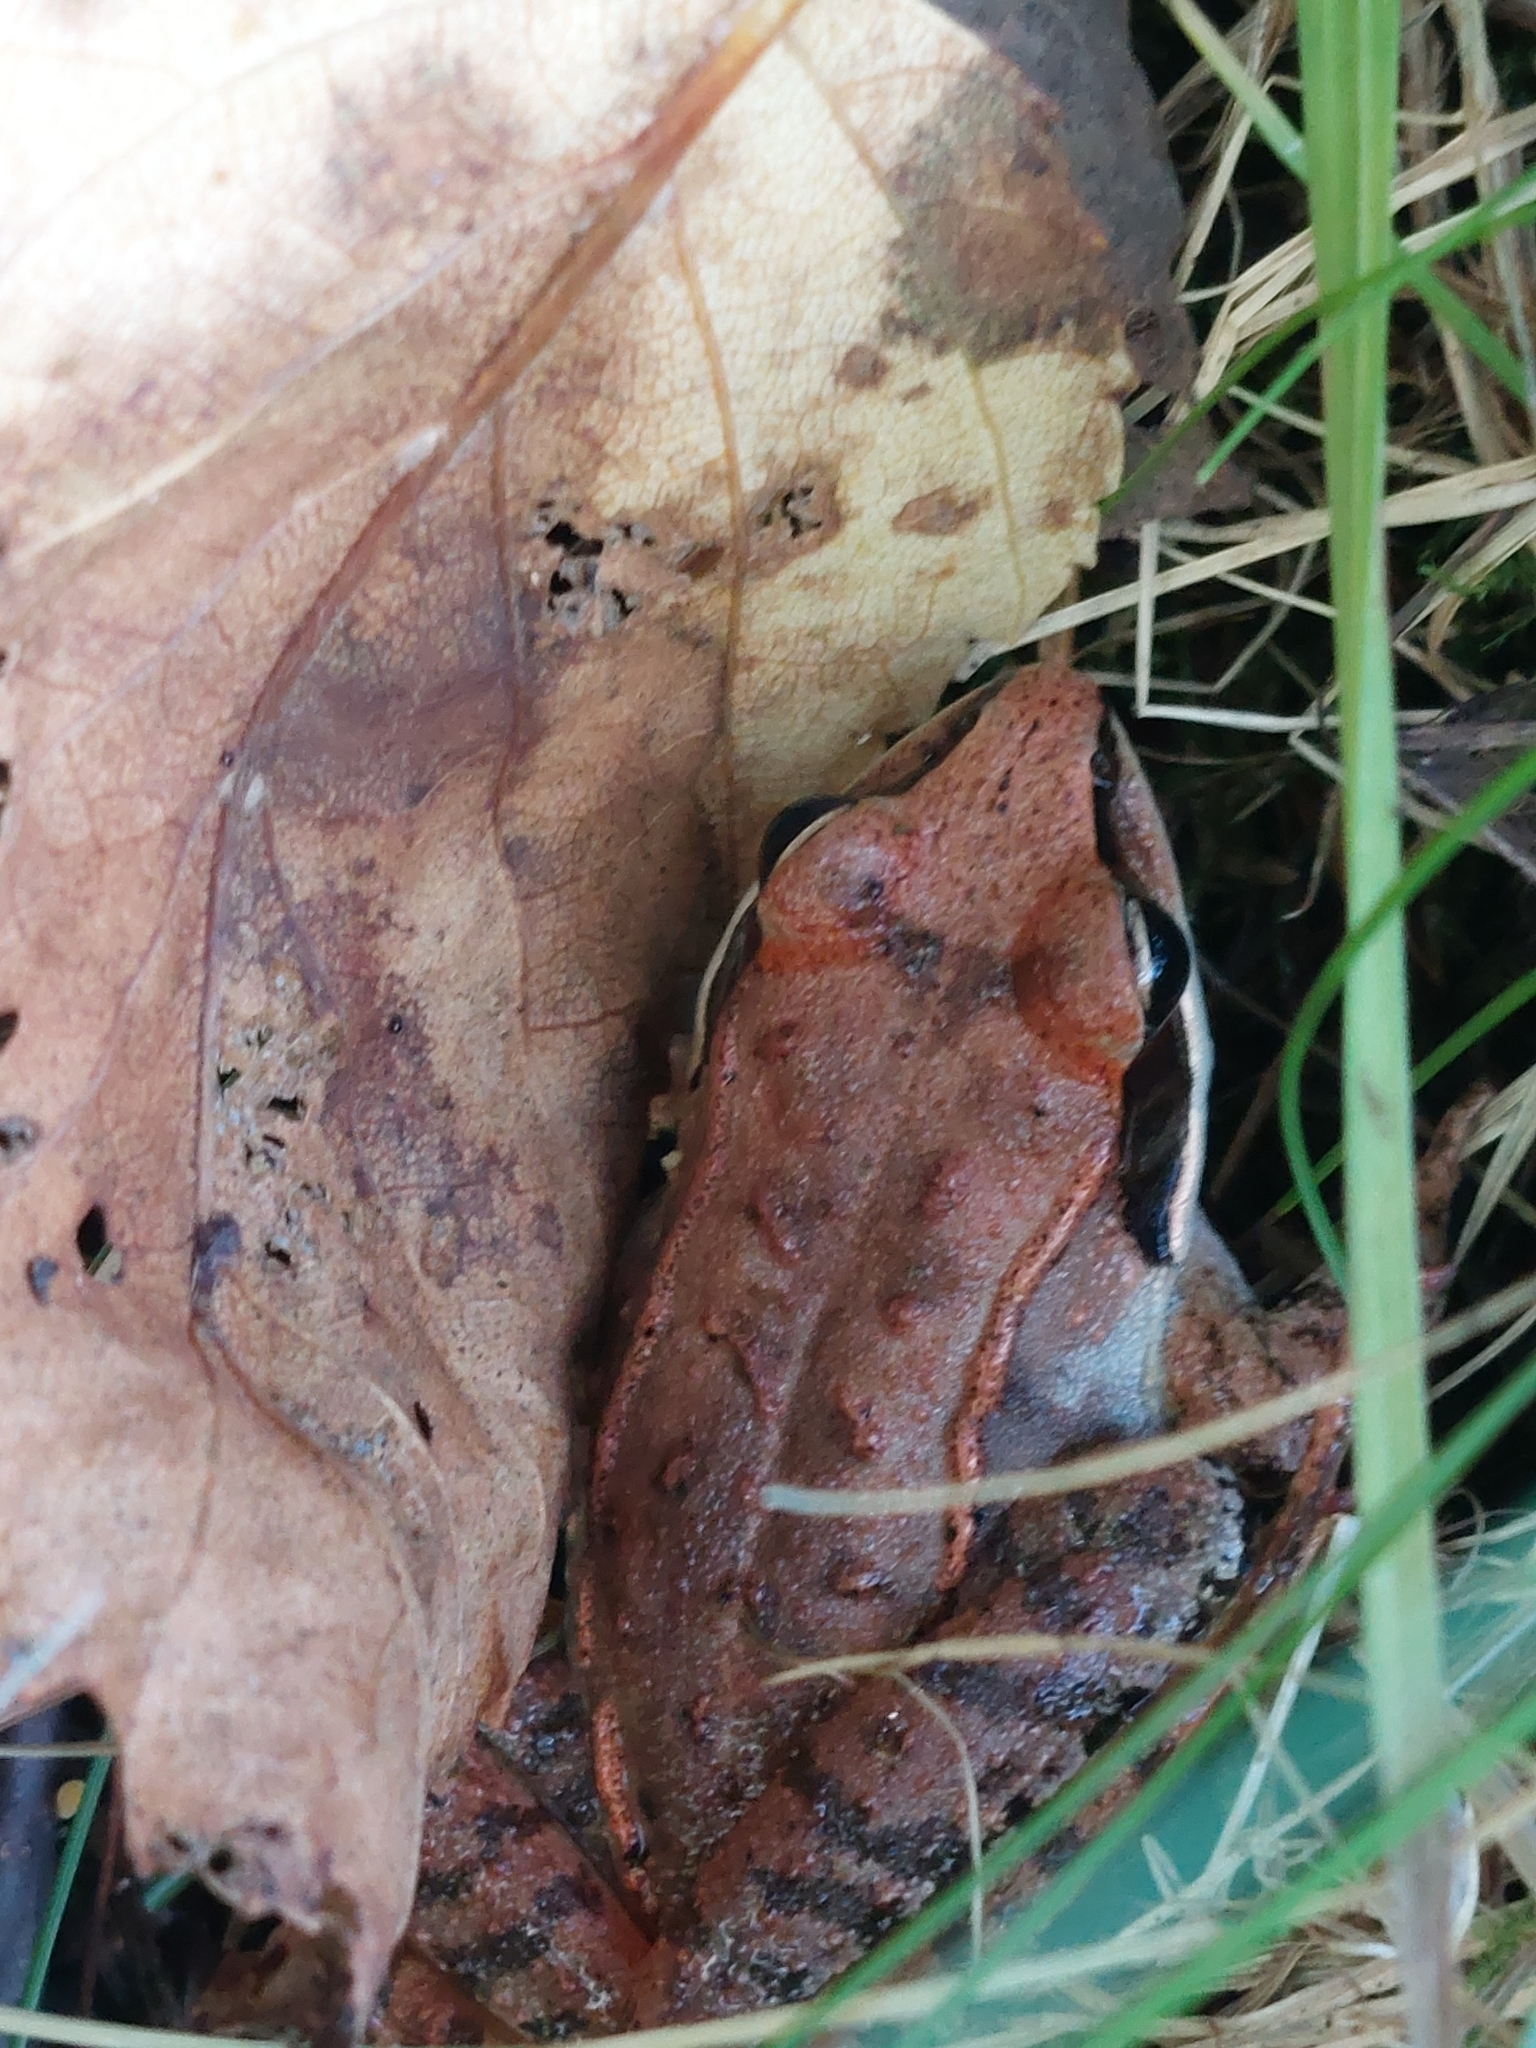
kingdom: Animalia
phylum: Chordata
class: Amphibia
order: Anura
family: Ranidae
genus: Lithobates
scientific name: Lithobates sylvaticus
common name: Wood frog
